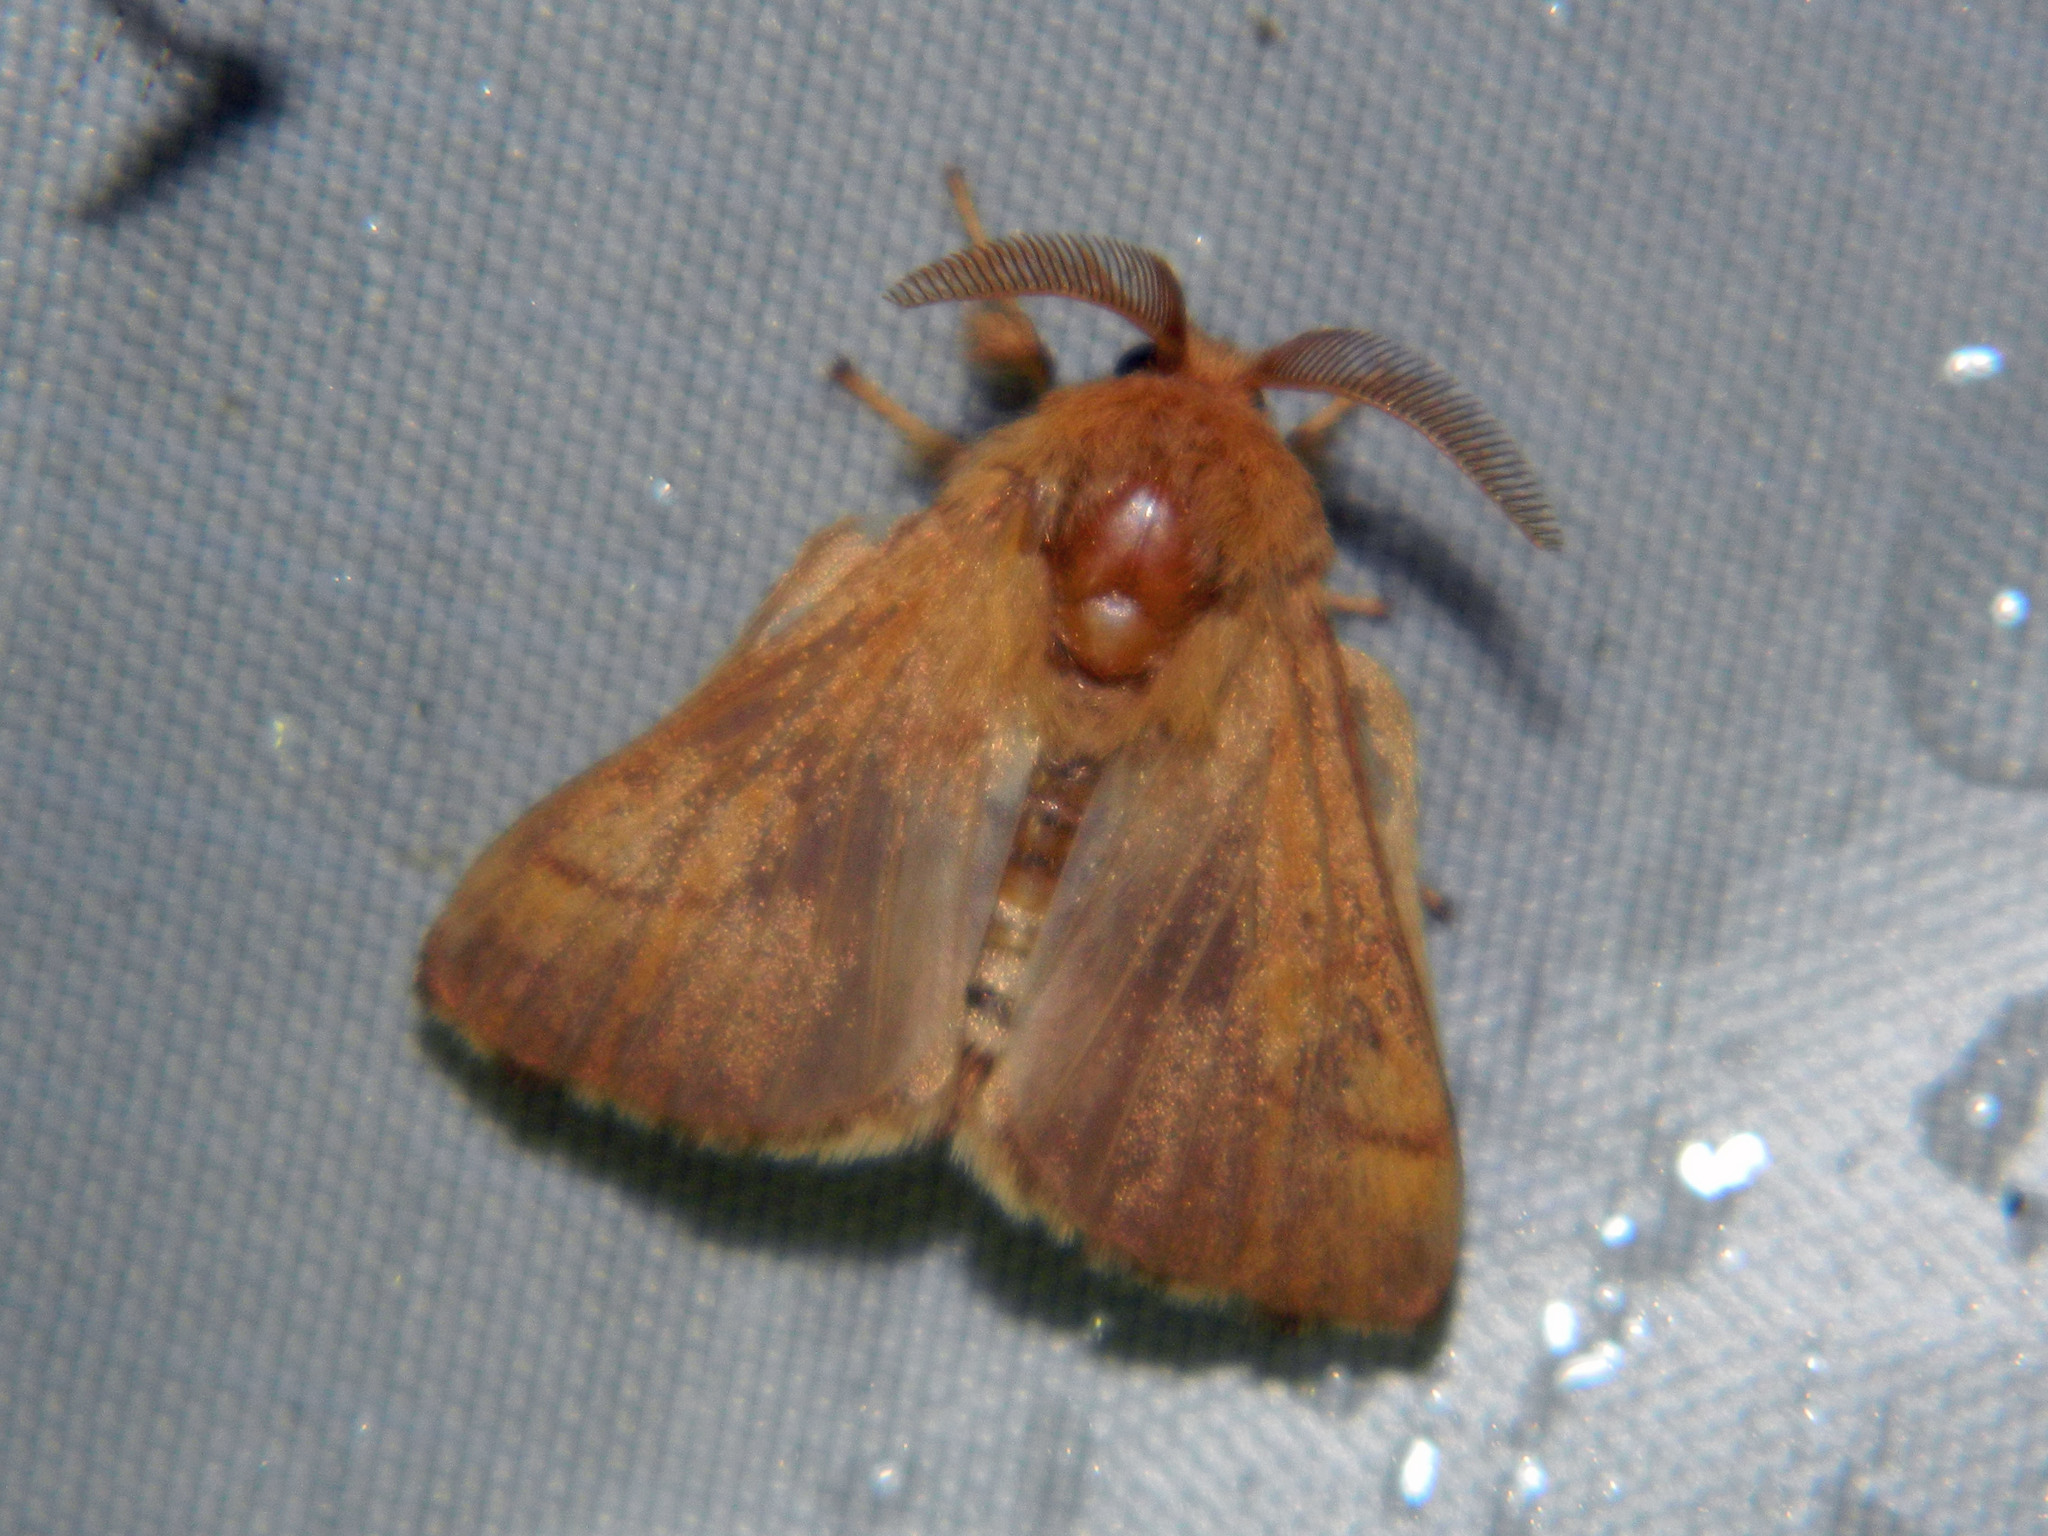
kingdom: Animalia
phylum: Arthropoda
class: Insecta
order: Lepidoptera
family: Lasiocampidae
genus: Malacosoma
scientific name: Malacosoma disstria
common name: Forest tent caterpillar
